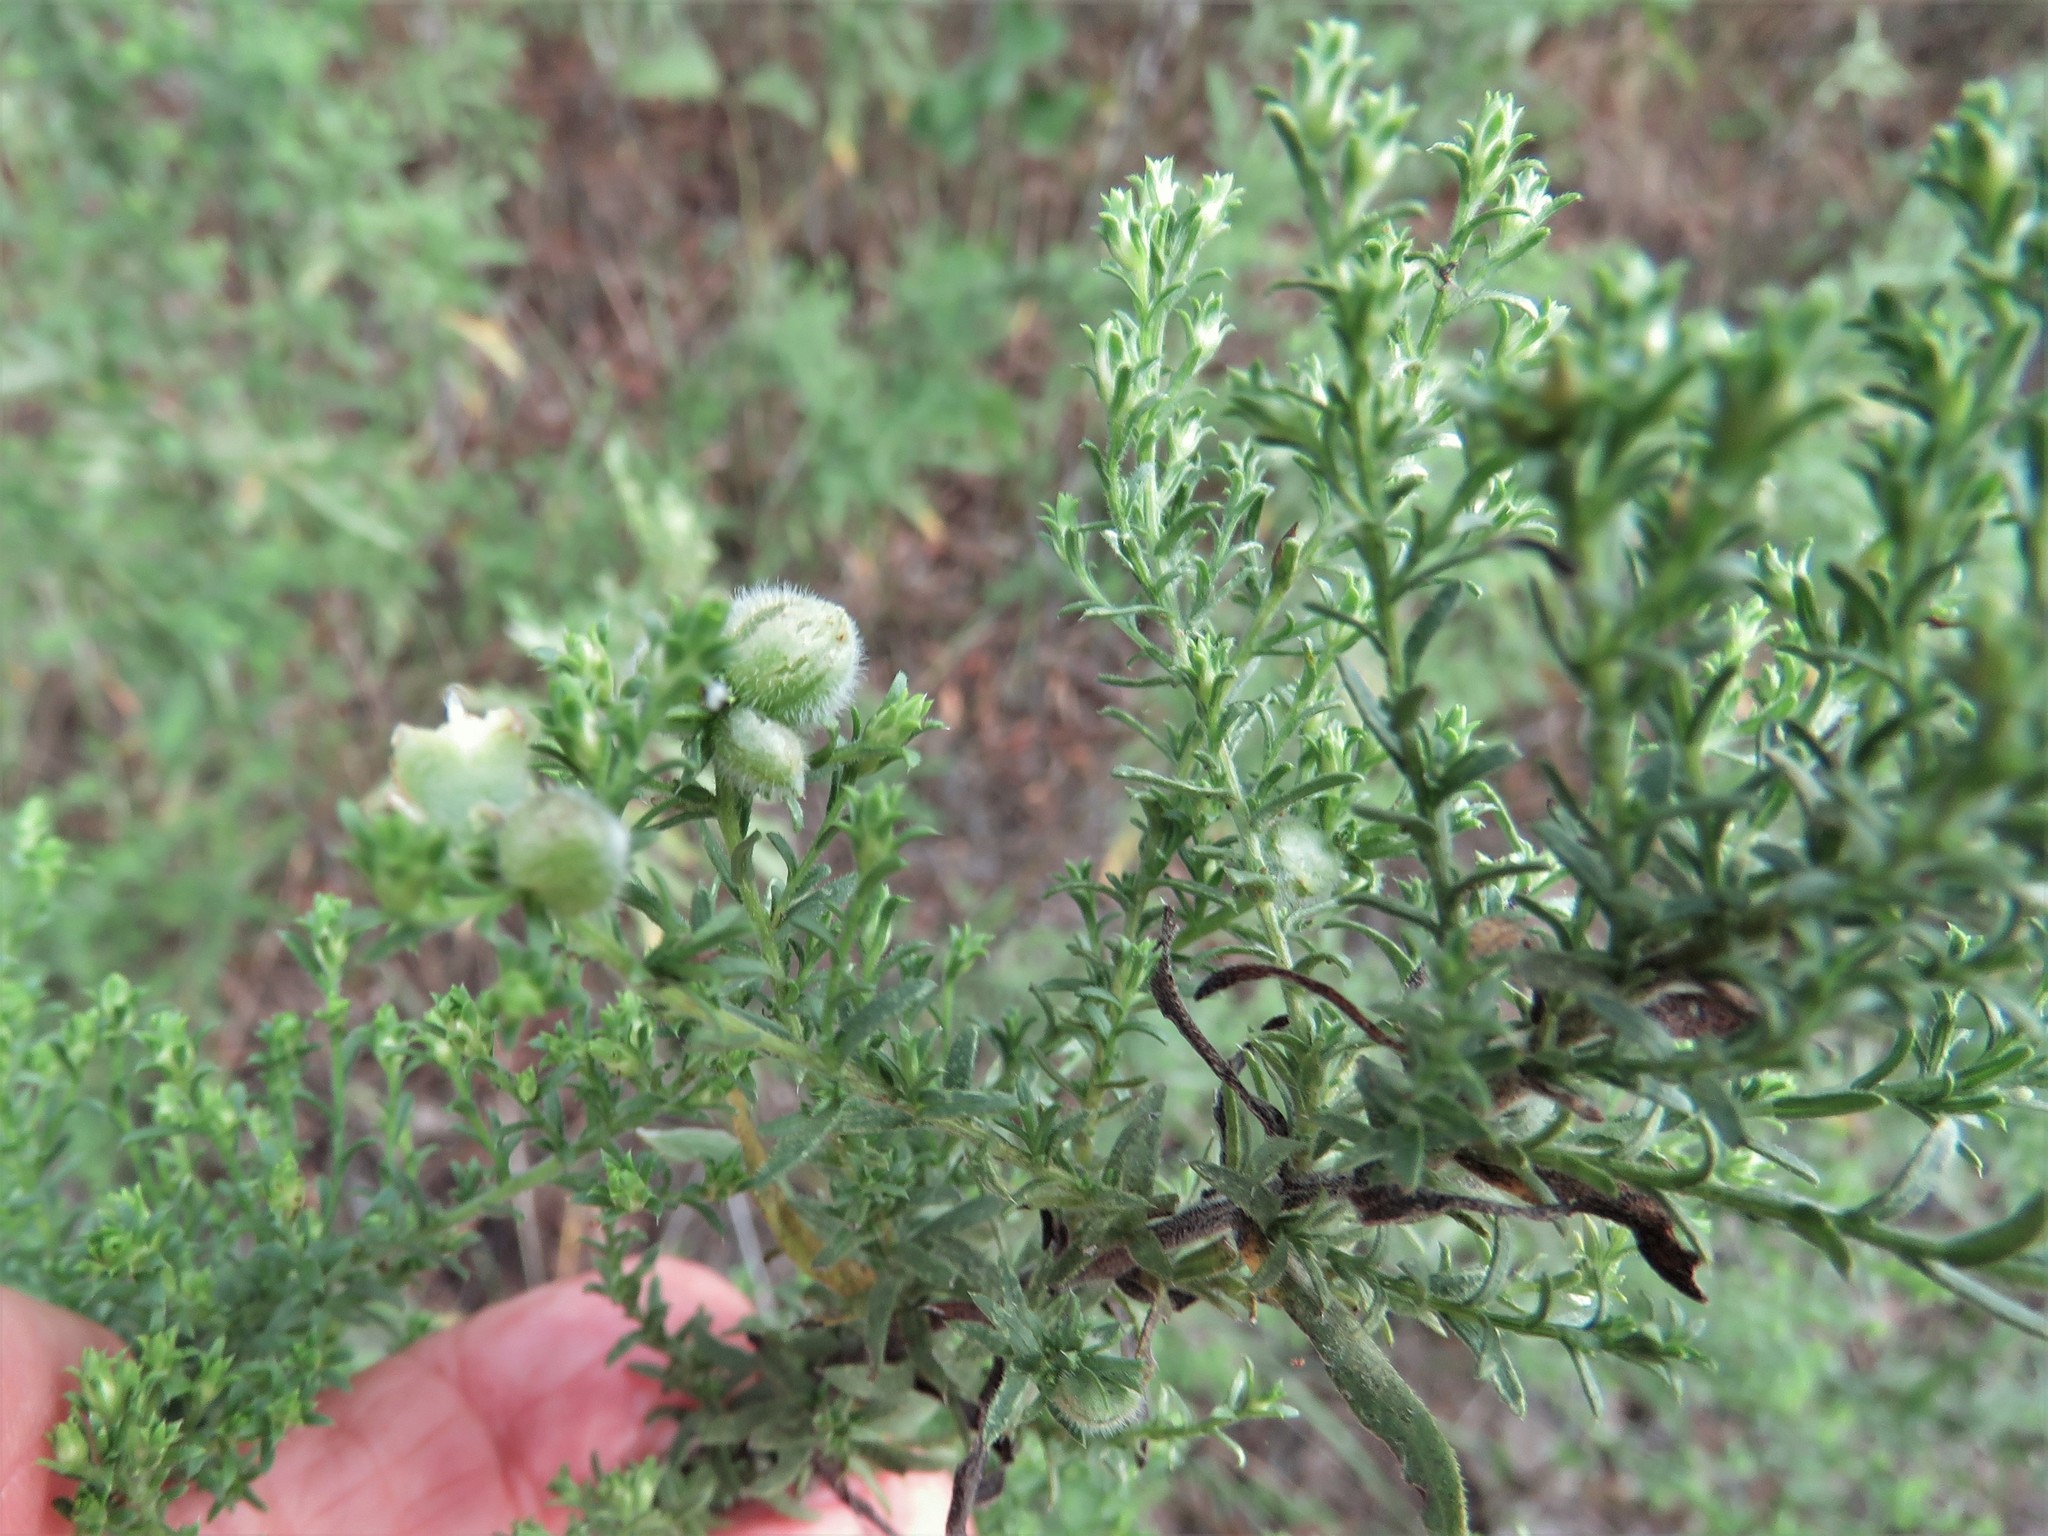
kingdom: Plantae
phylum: Tracheophyta
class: Magnoliopsida
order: Asterales
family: Asteraceae
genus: Symphyotrichum
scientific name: Symphyotrichum ericoides
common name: Heath aster
